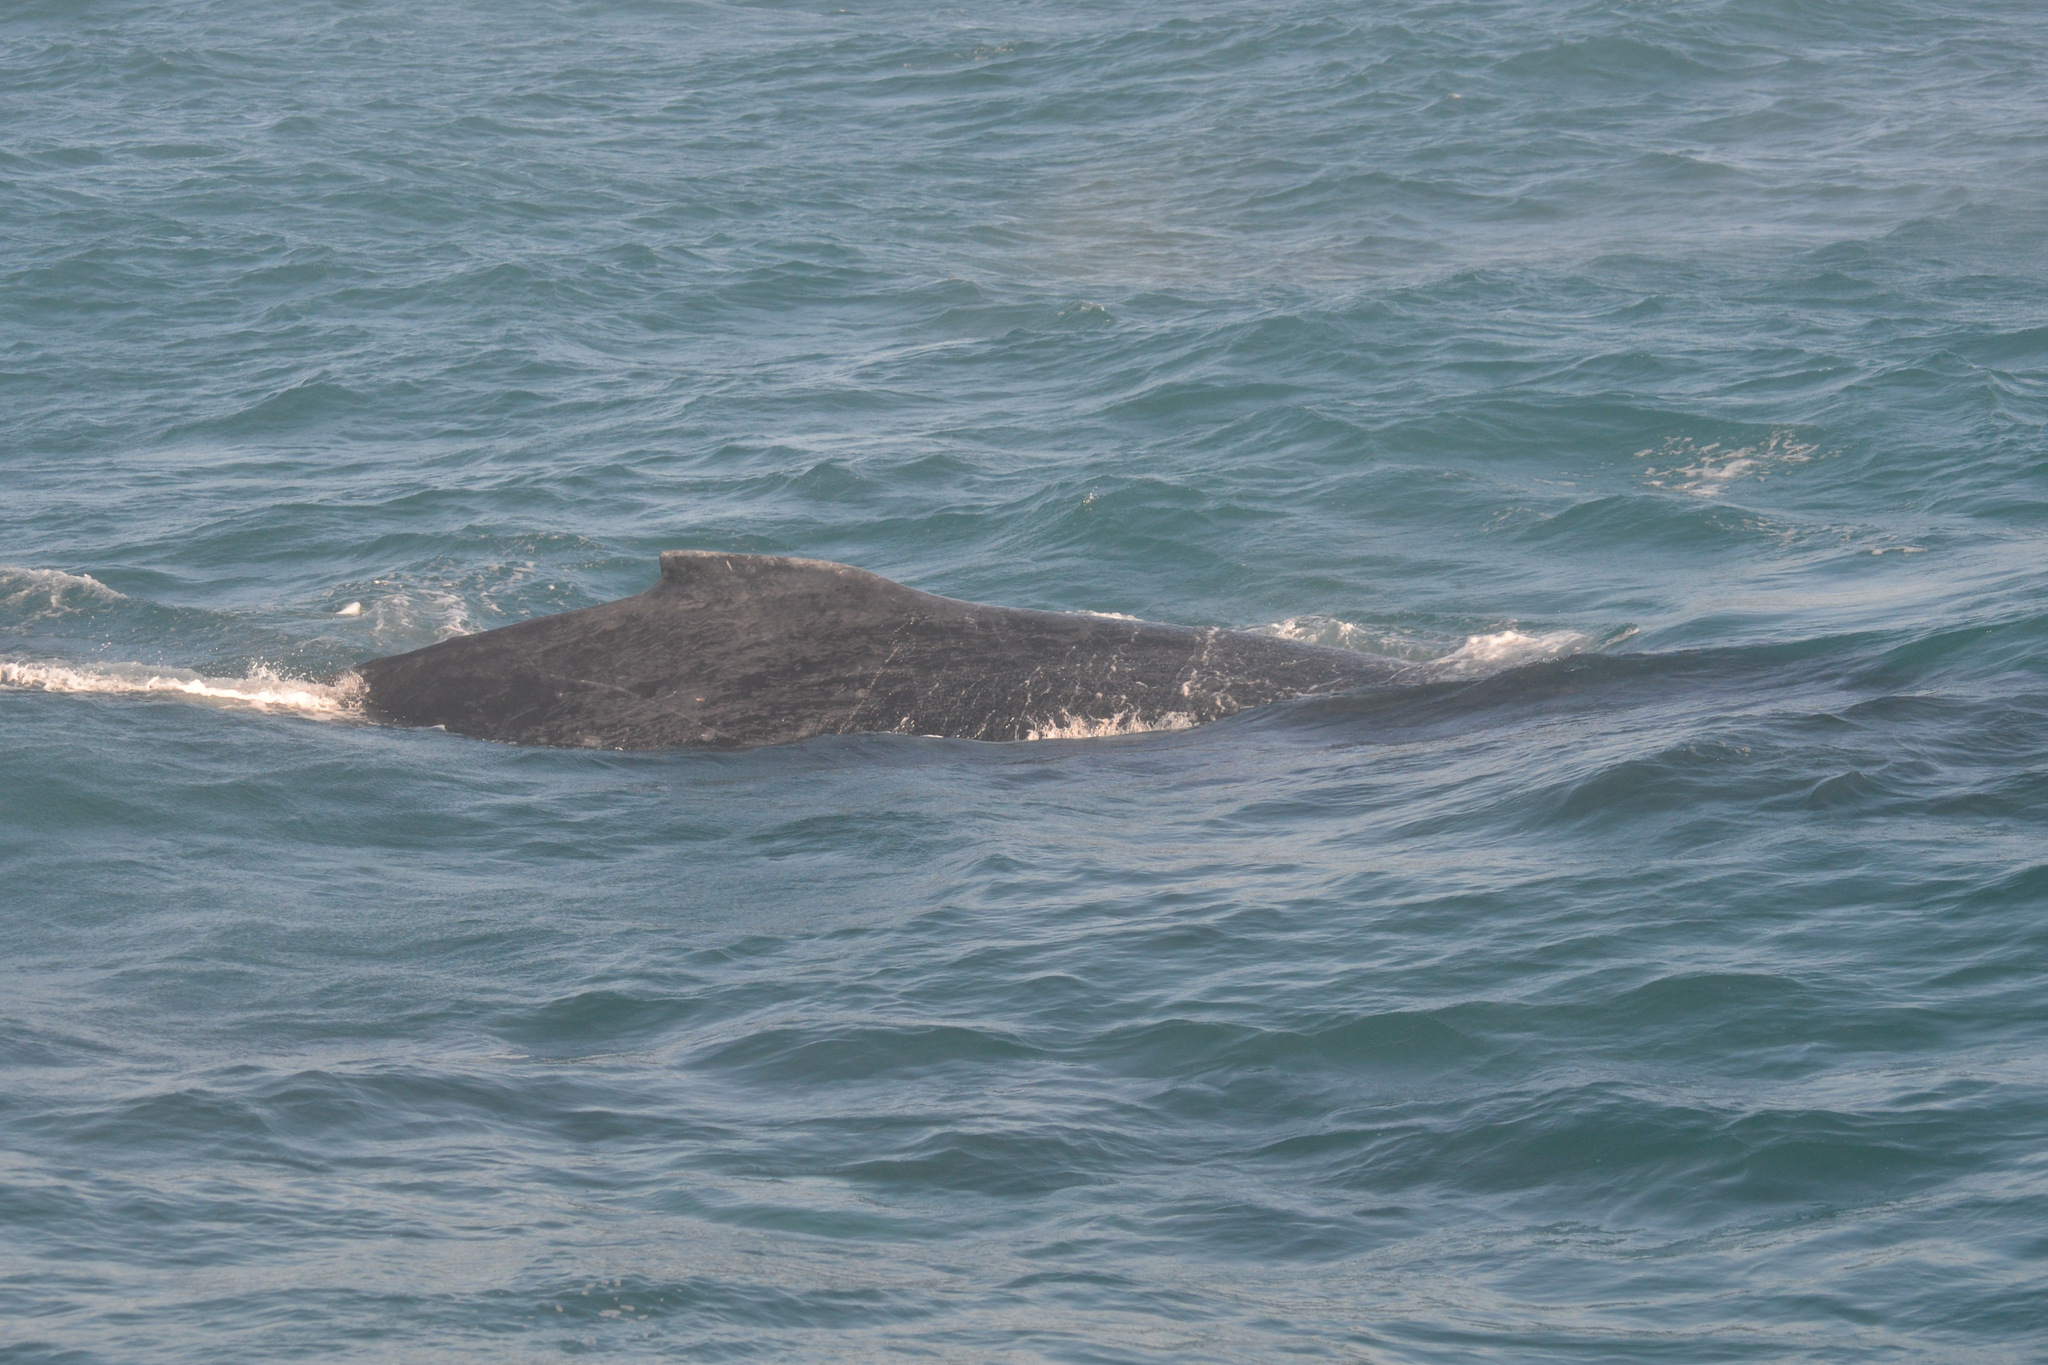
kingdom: Animalia
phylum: Chordata
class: Mammalia
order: Cetacea
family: Balaenopteridae
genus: Megaptera
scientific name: Megaptera novaeangliae
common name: Humpback whale
